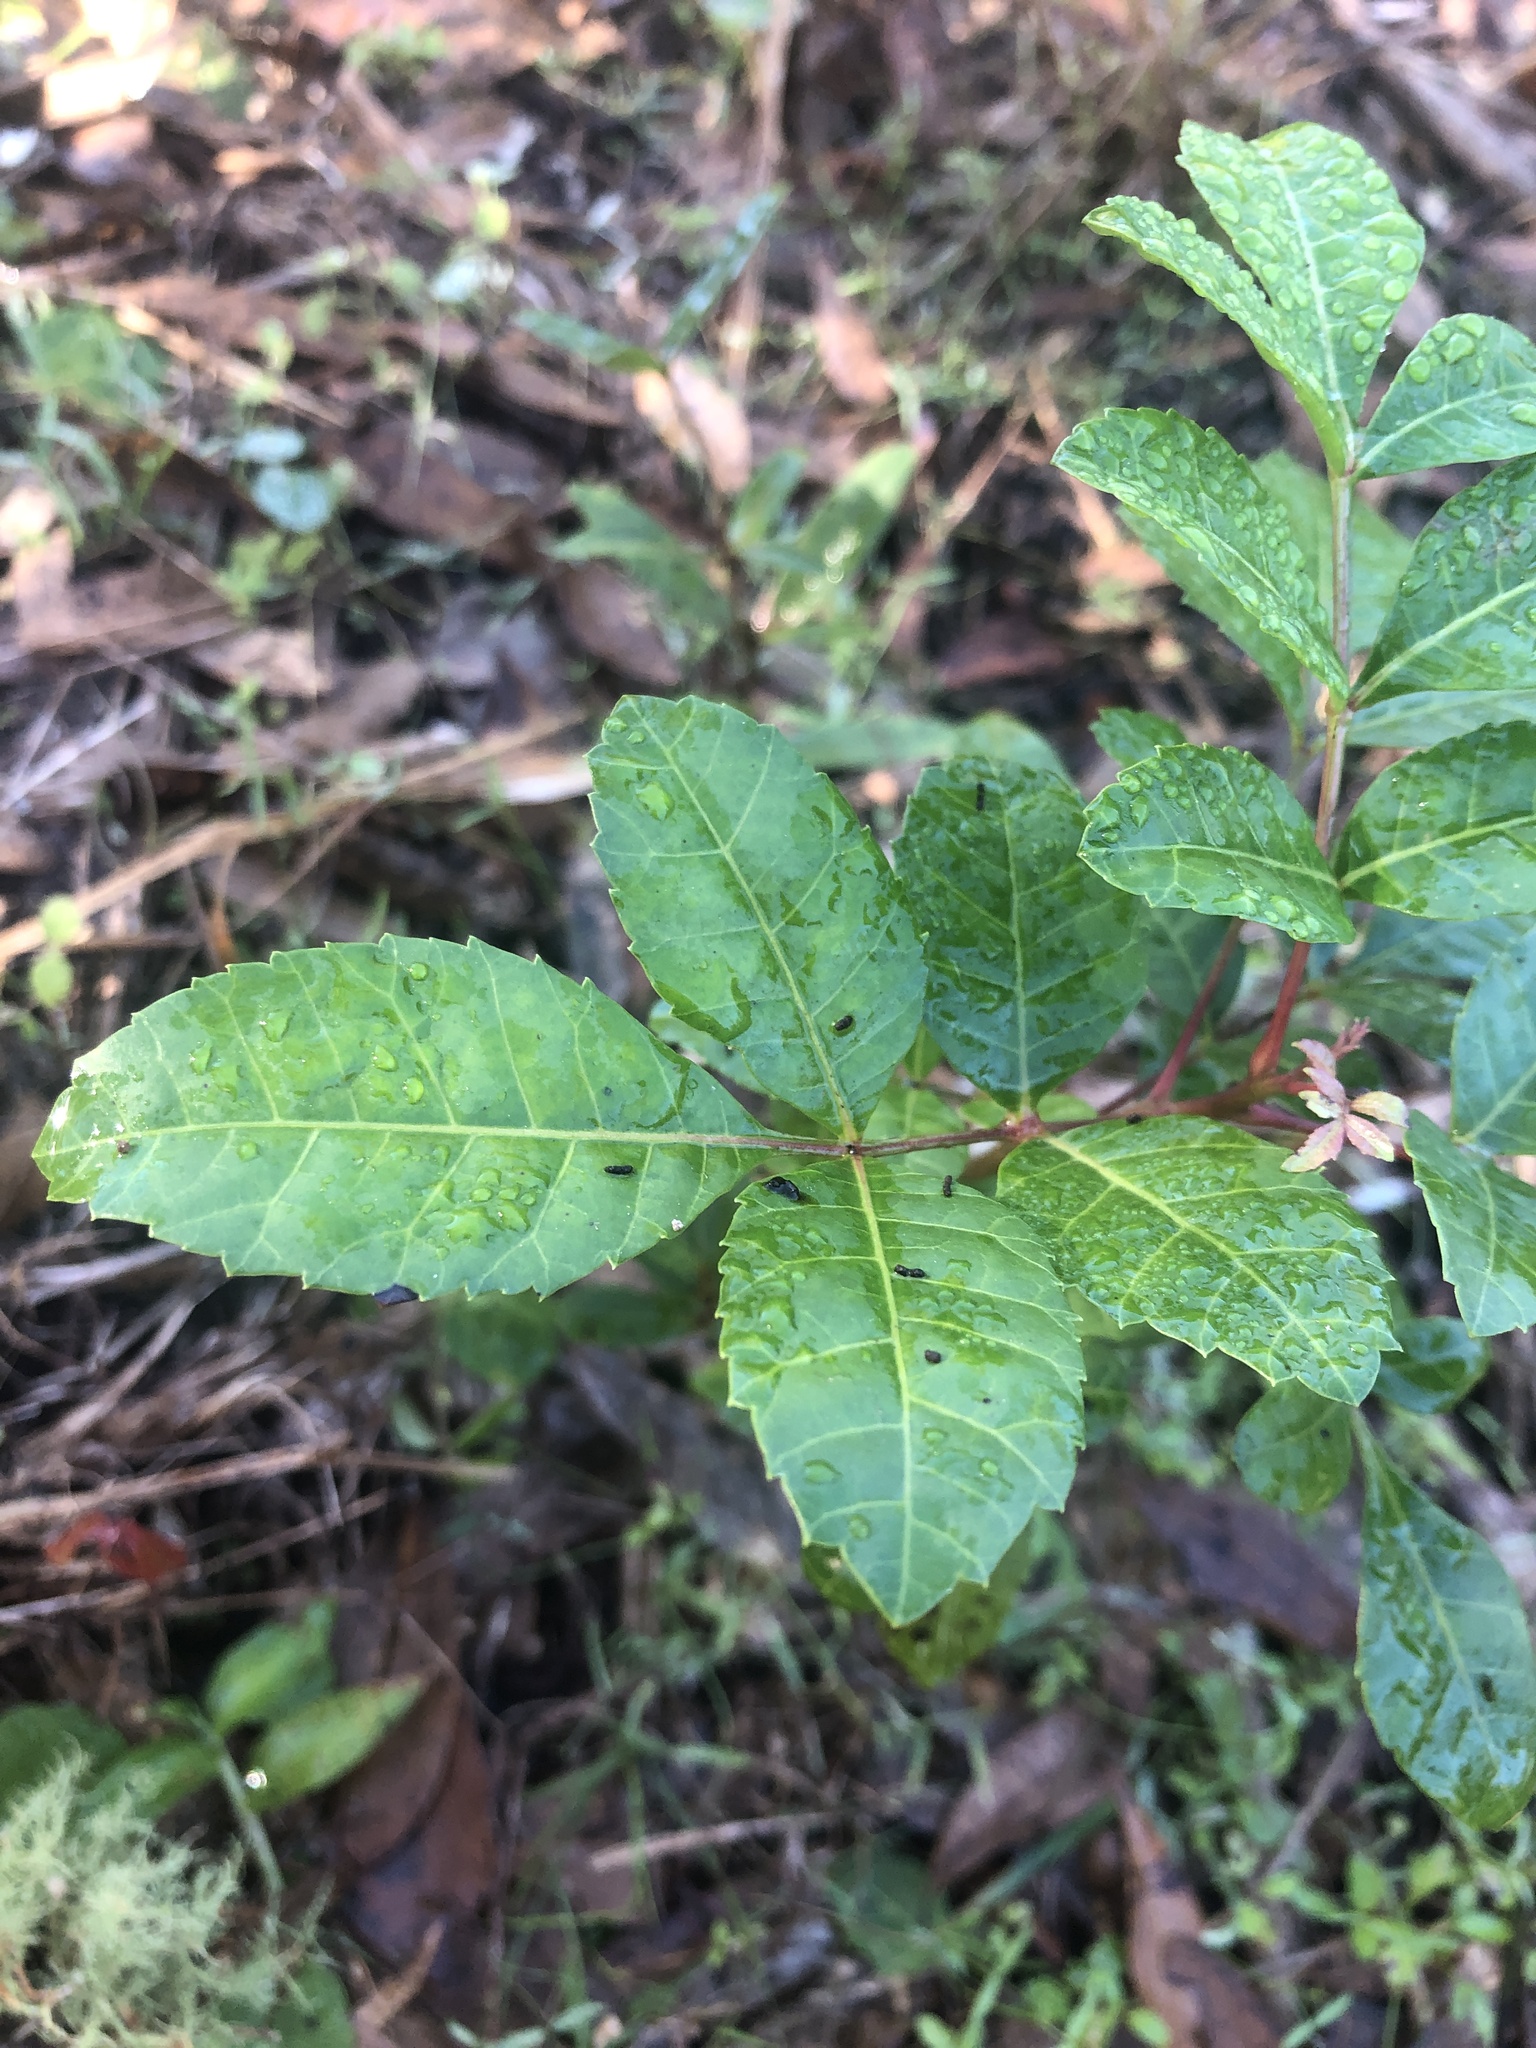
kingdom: Plantae
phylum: Tracheophyta
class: Magnoliopsida
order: Sapindales
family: Anacardiaceae
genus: Schinus
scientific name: Schinus terebinthifolia
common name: Brazilian peppertree
